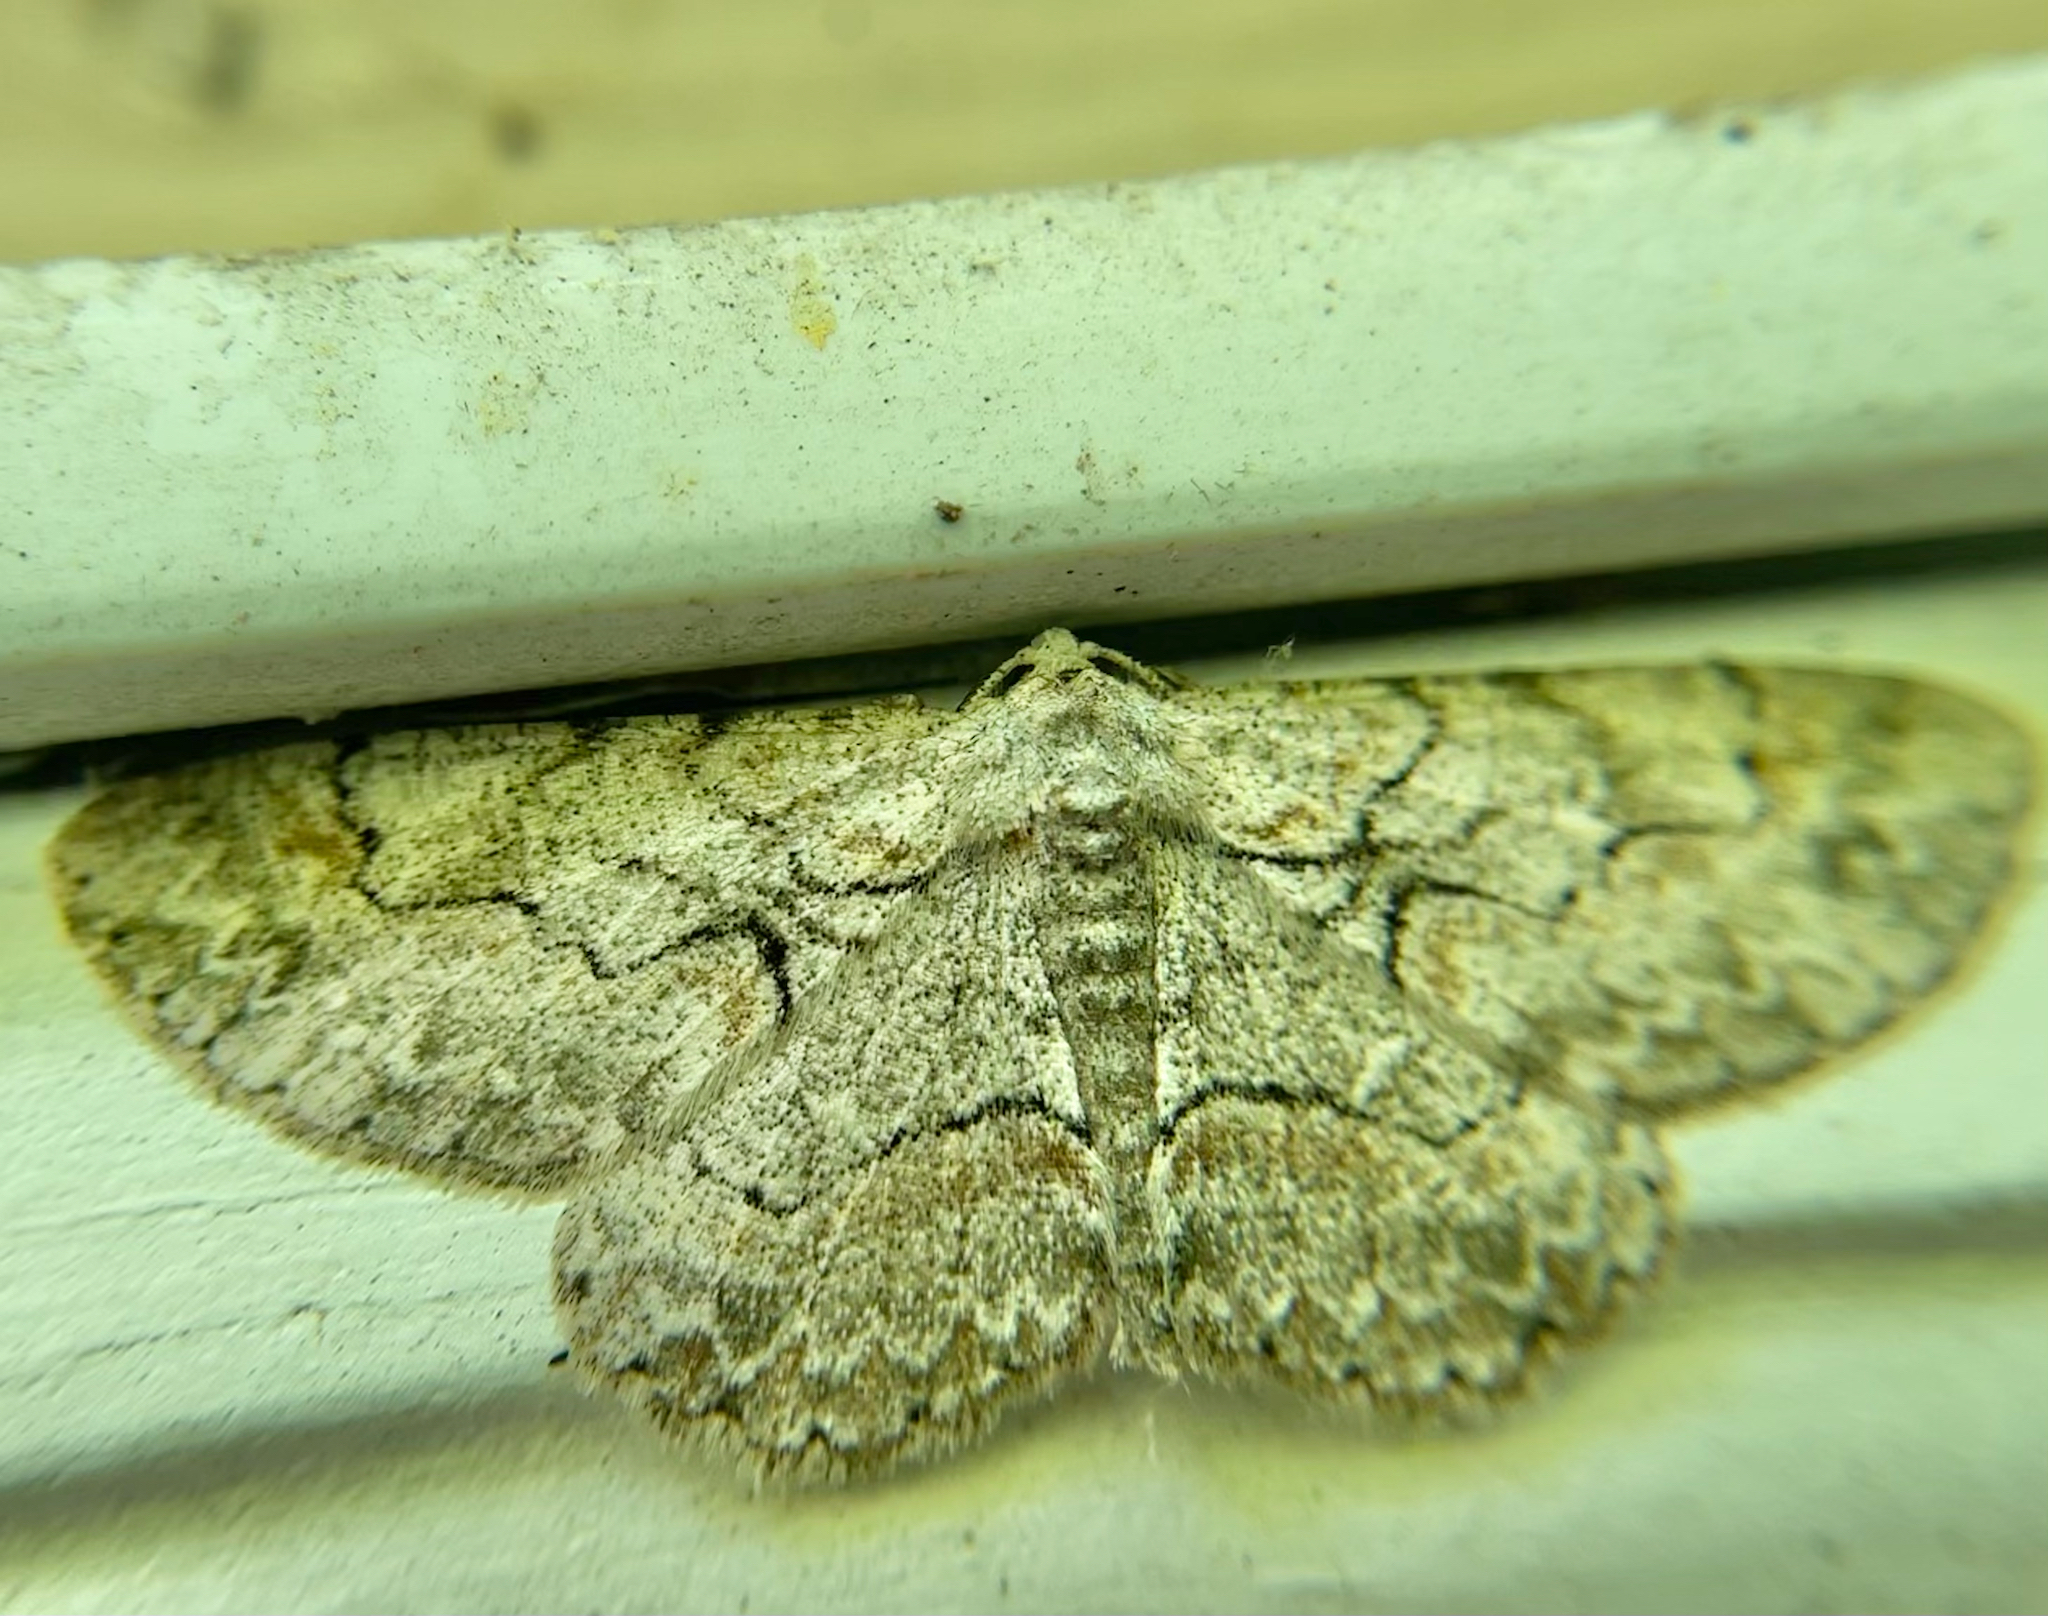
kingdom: Animalia
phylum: Arthropoda
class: Insecta
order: Lepidoptera
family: Geometridae
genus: Iridopsis
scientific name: Iridopsis defectaria
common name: Brown-shaded gray
